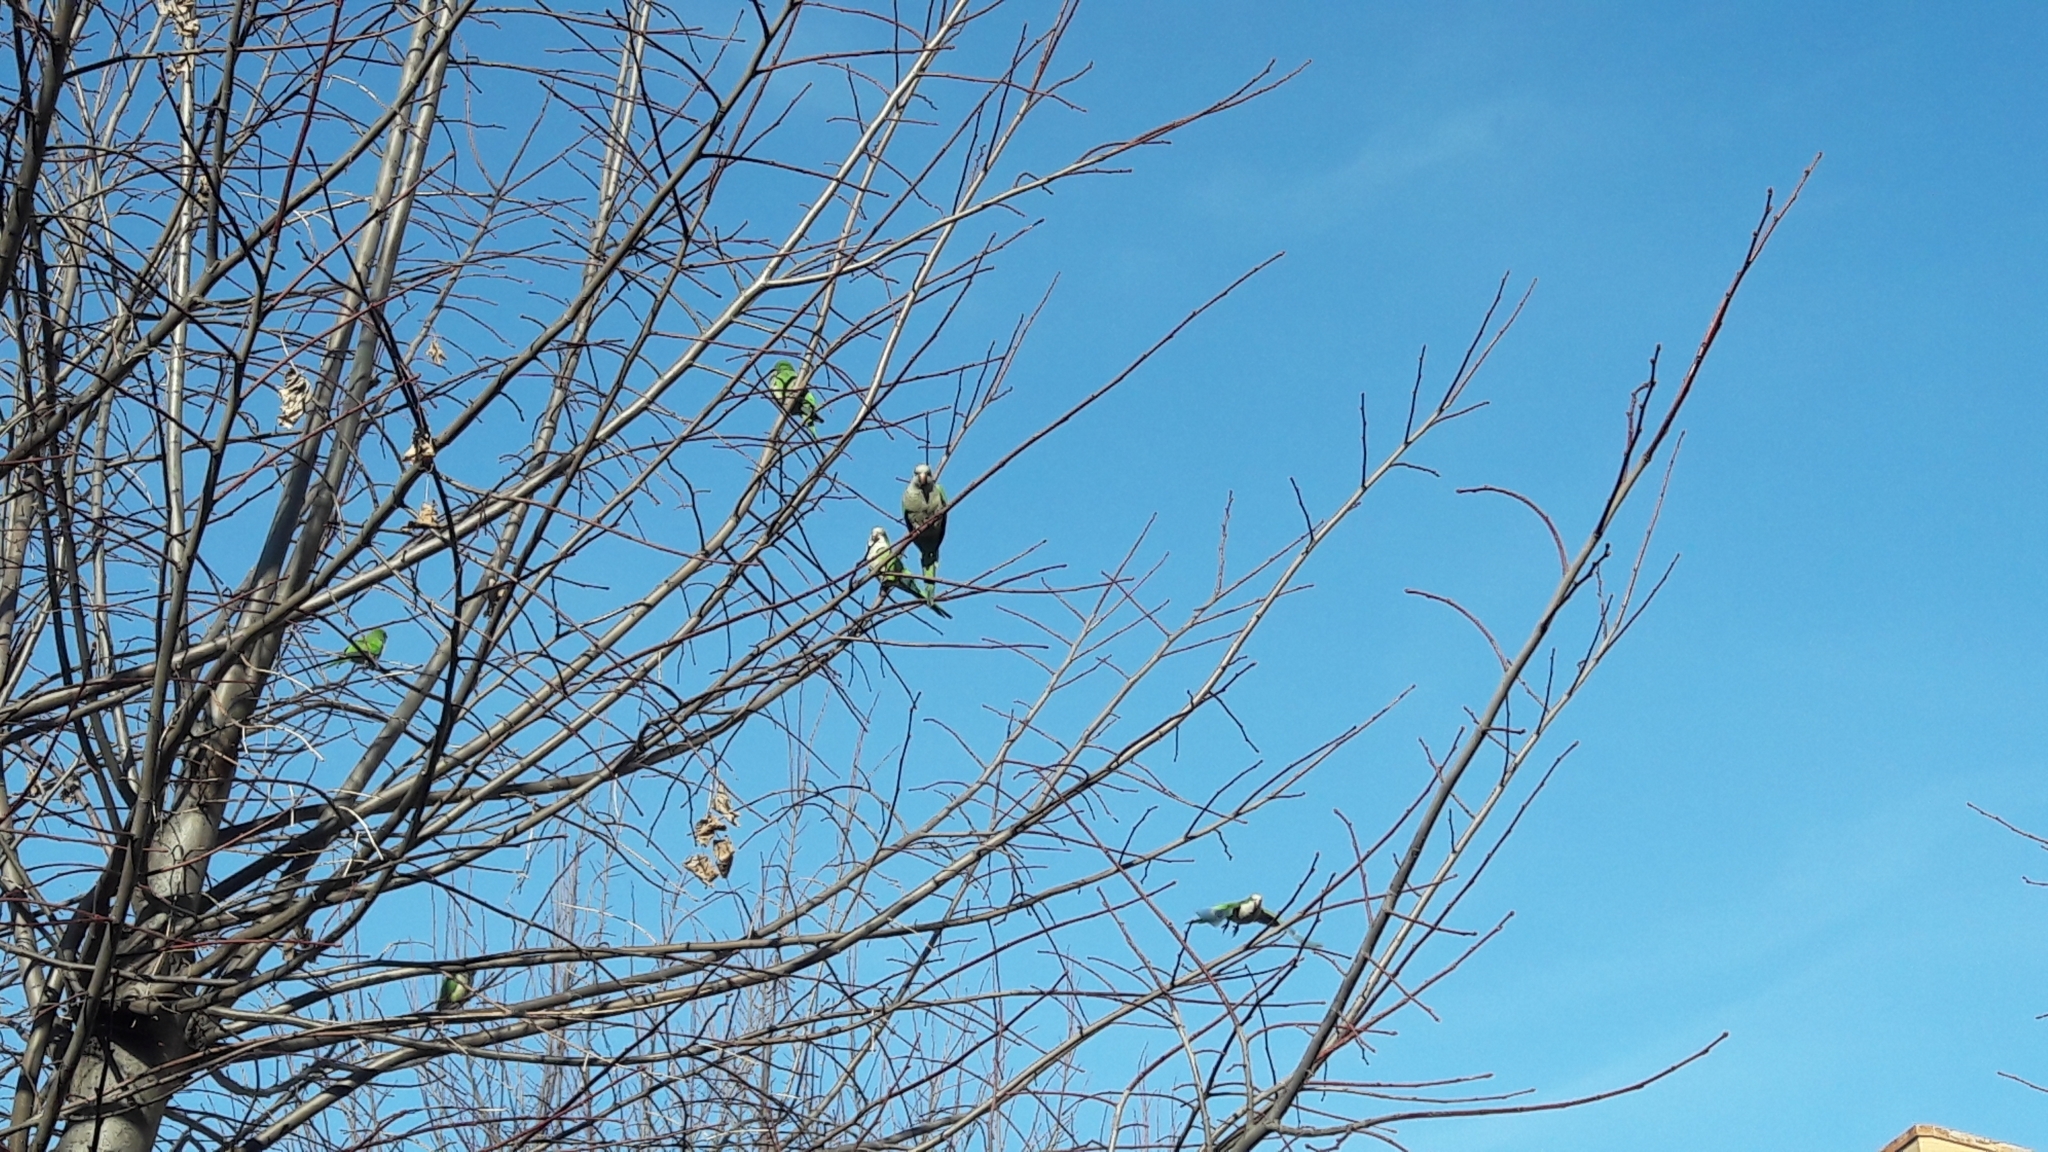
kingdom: Animalia
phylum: Chordata
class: Aves
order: Psittaciformes
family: Psittacidae
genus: Myiopsitta
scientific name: Myiopsitta monachus
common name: Monk parakeet
